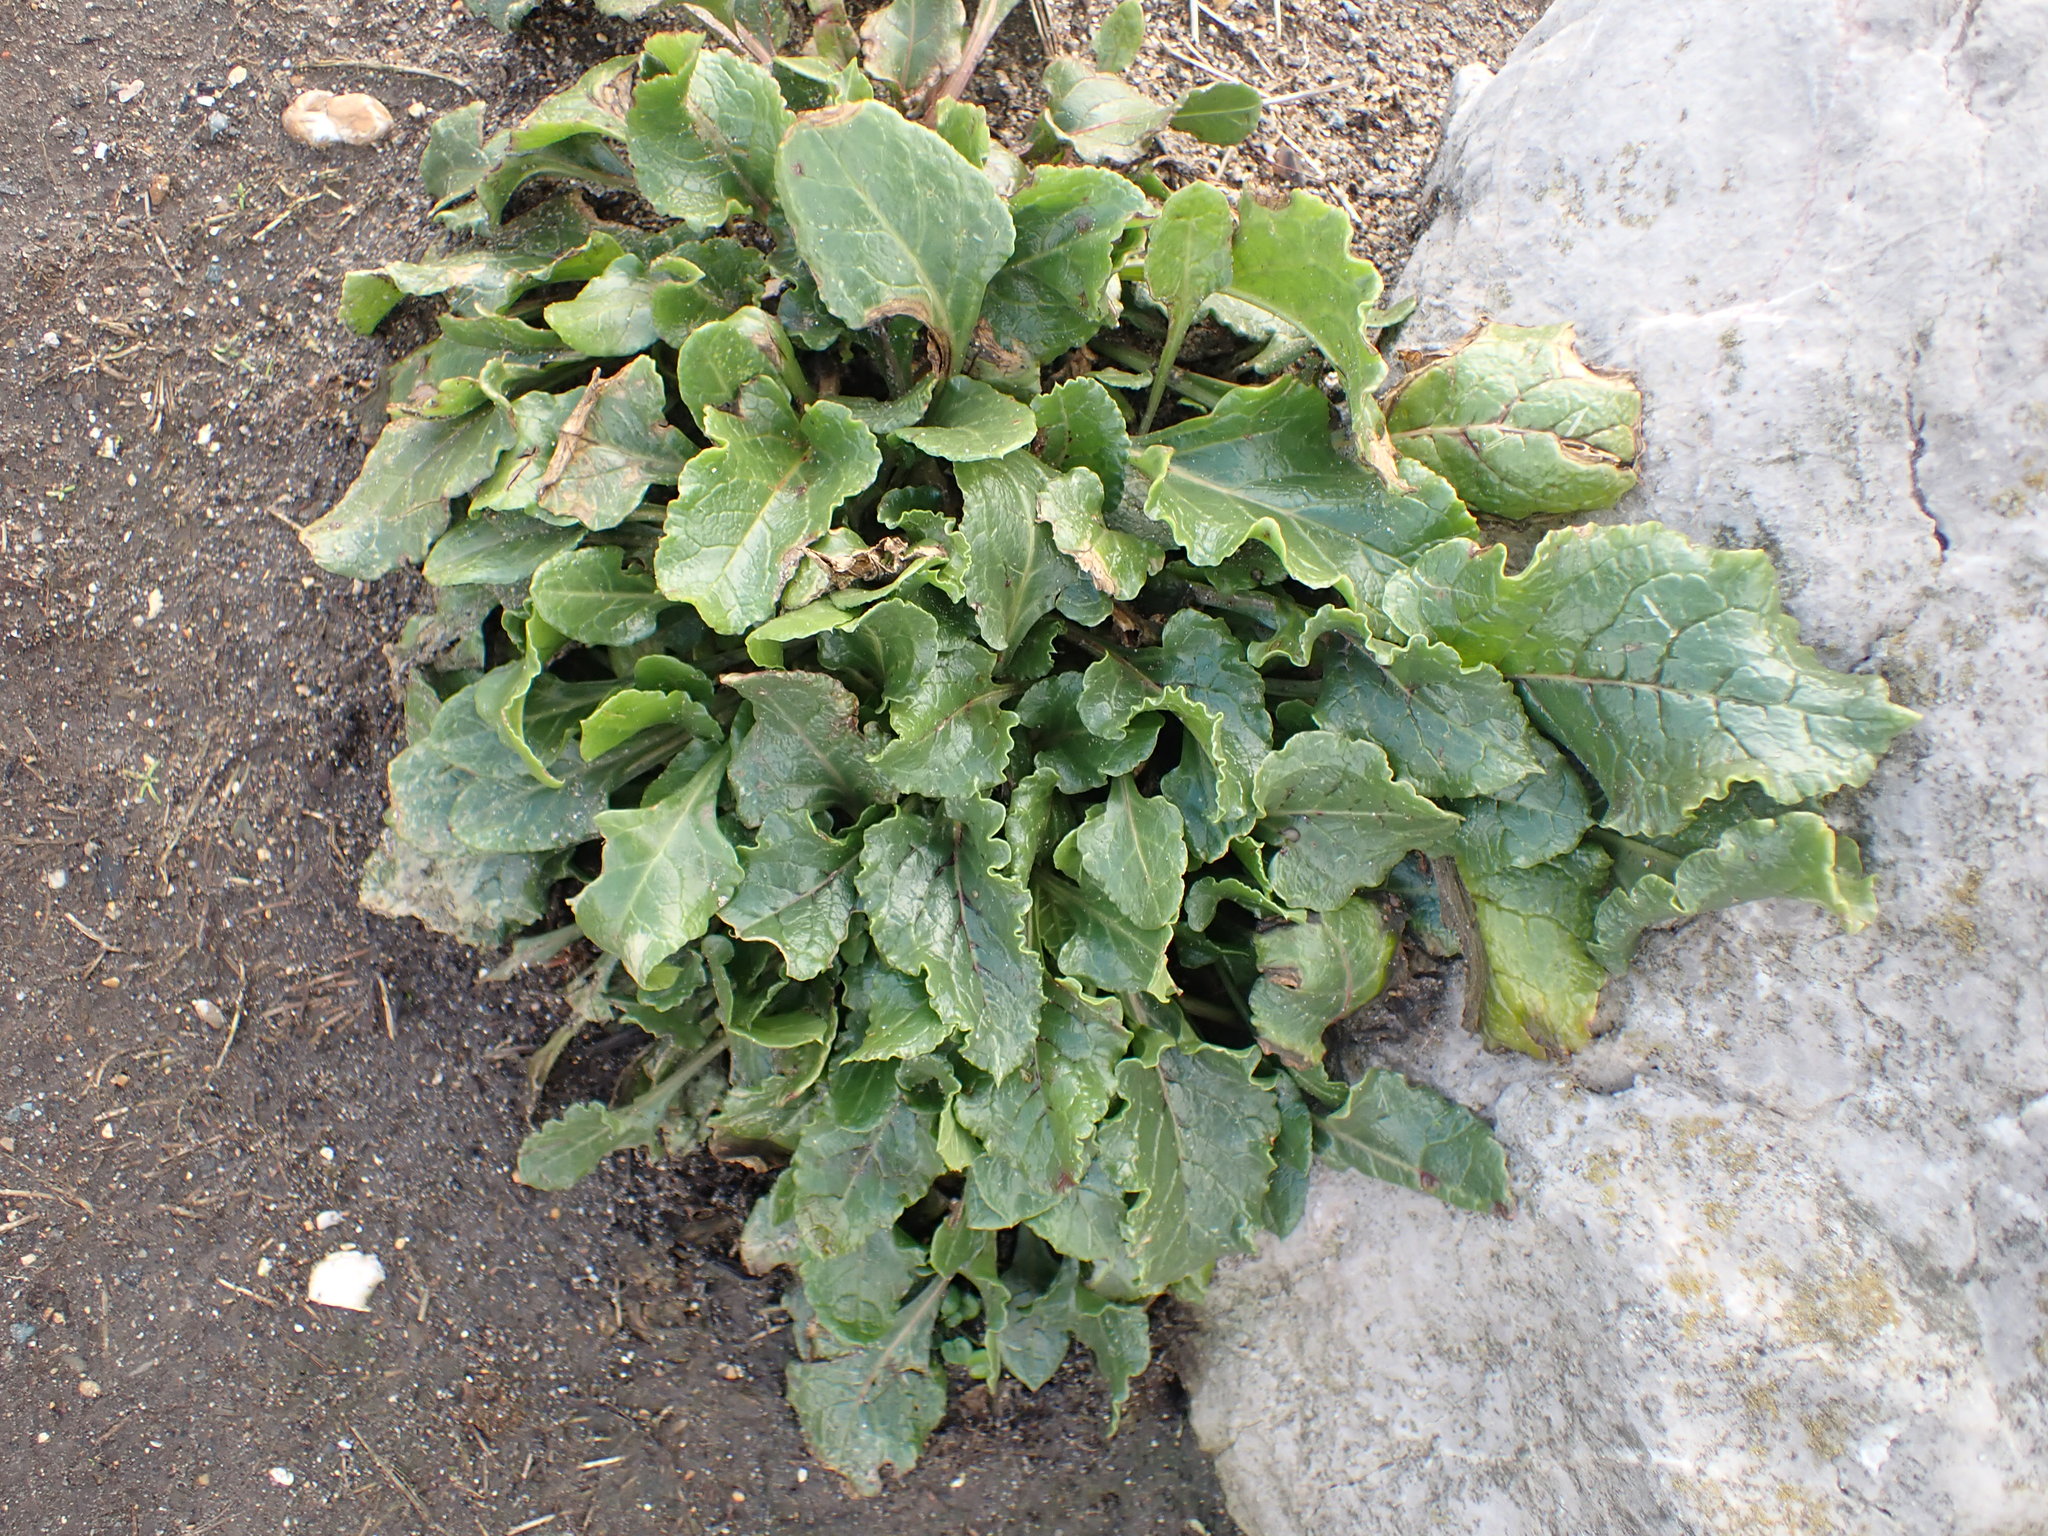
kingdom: Plantae
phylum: Tracheophyta
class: Magnoliopsida
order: Caryophyllales
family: Amaranthaceae
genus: Beta
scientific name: Beta vulgaris
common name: Beet
